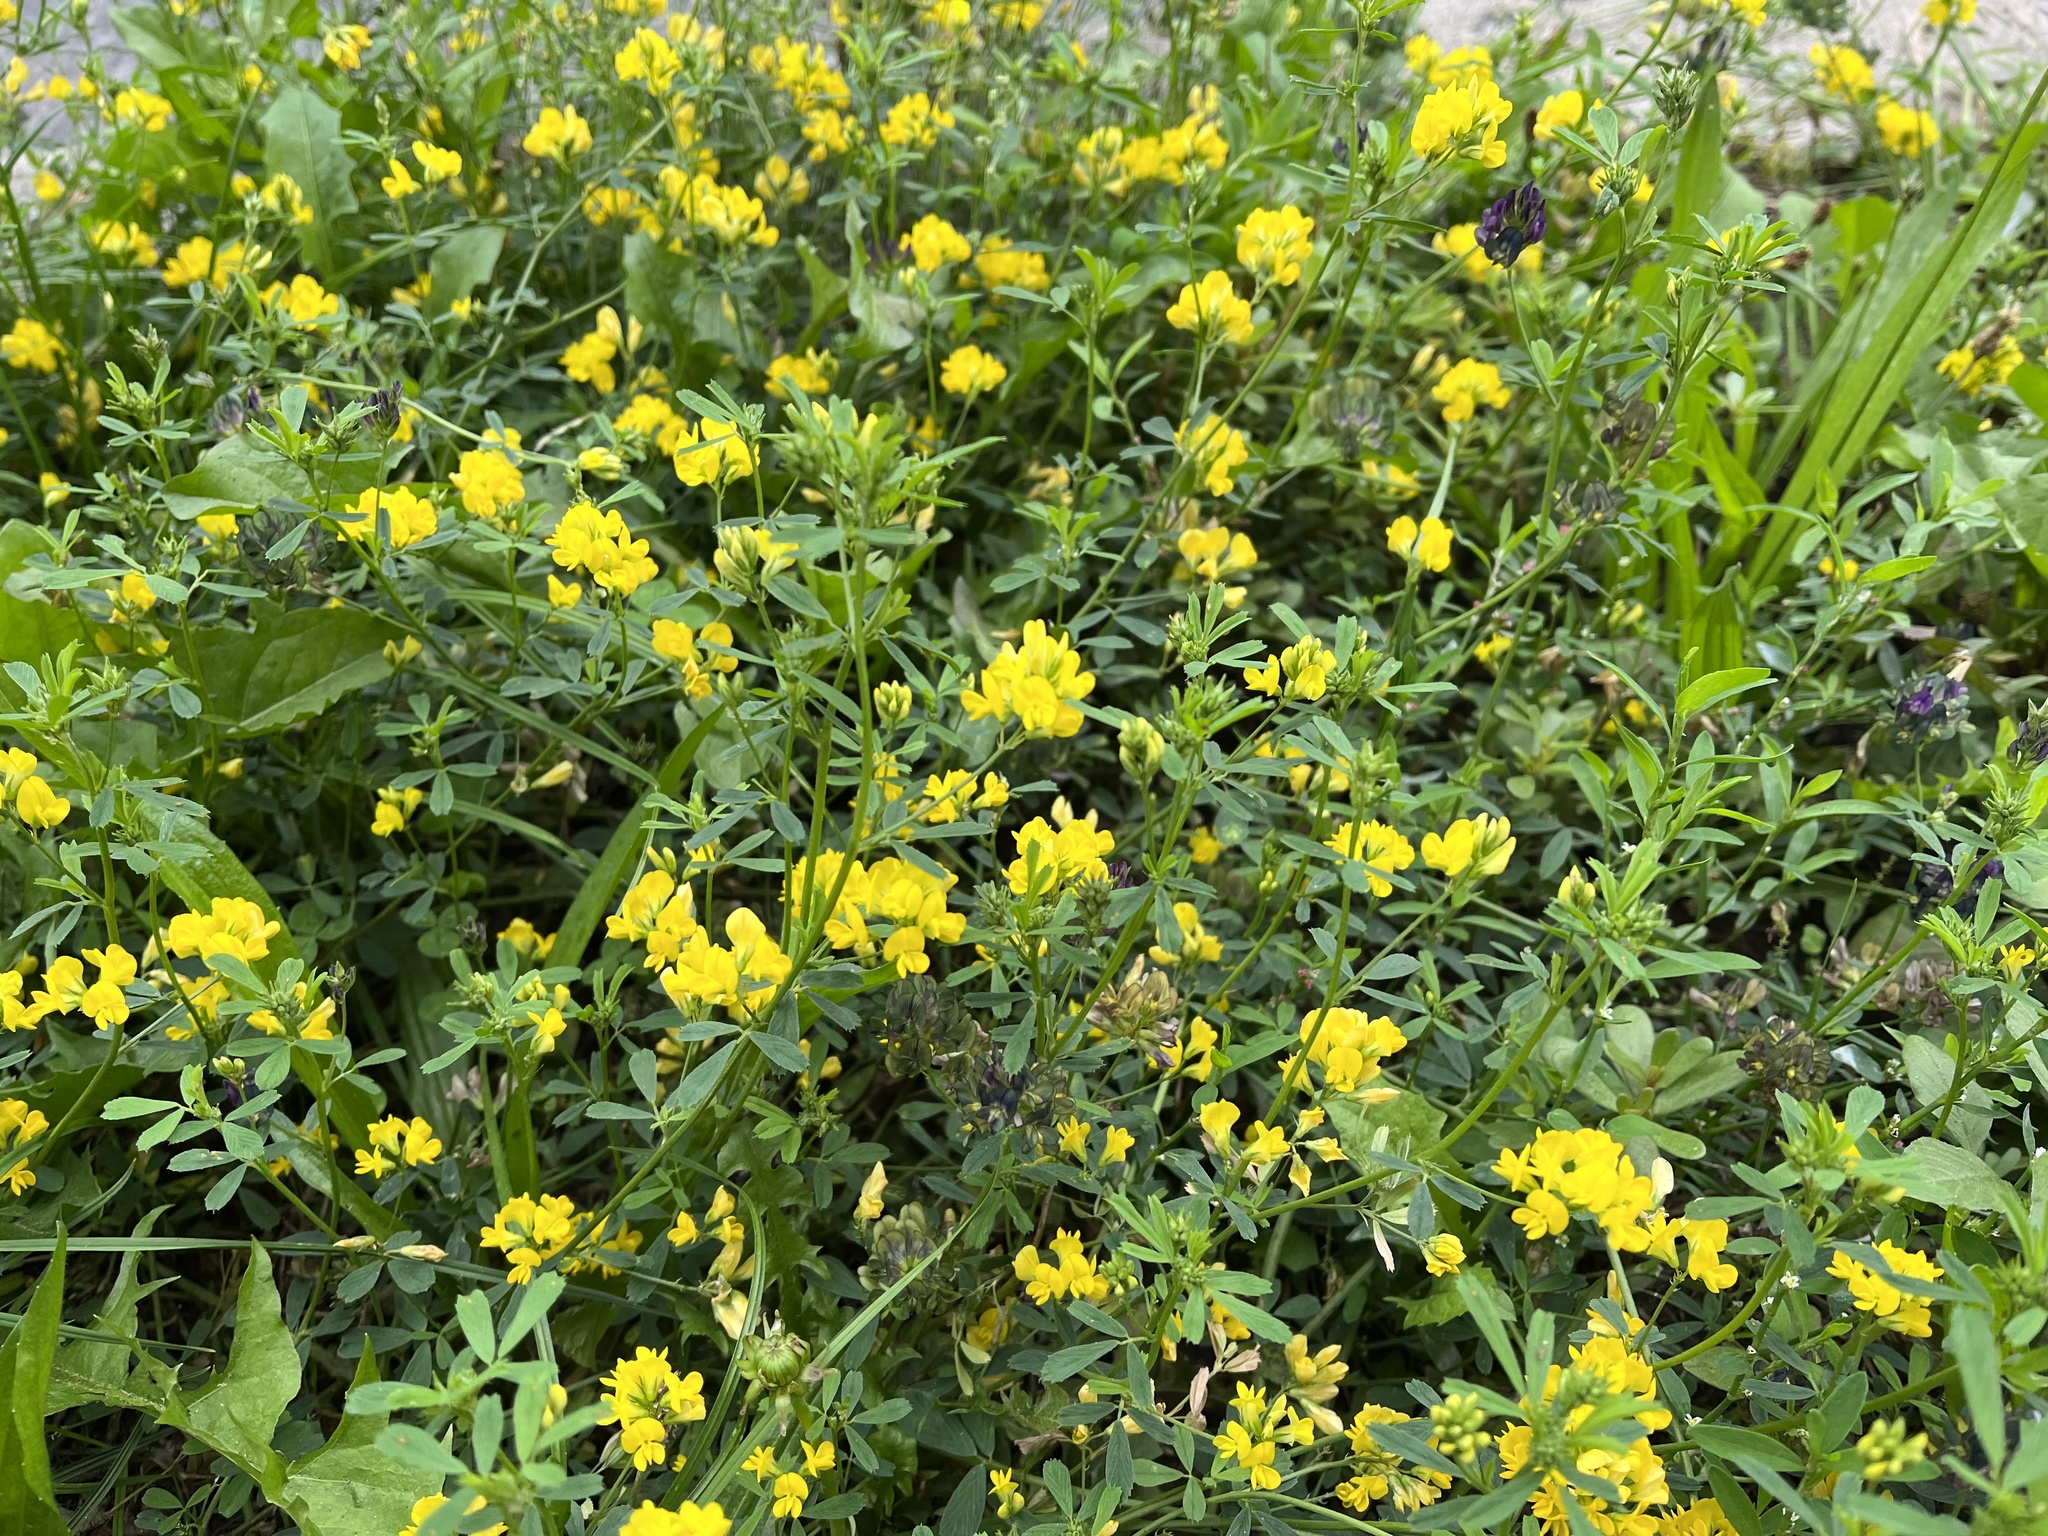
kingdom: Plantae
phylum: Tracheophyta
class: Magnoliopsida
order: Fabales
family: Fabaceae
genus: Medicago
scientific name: Medicago falcata
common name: Sickle medick
